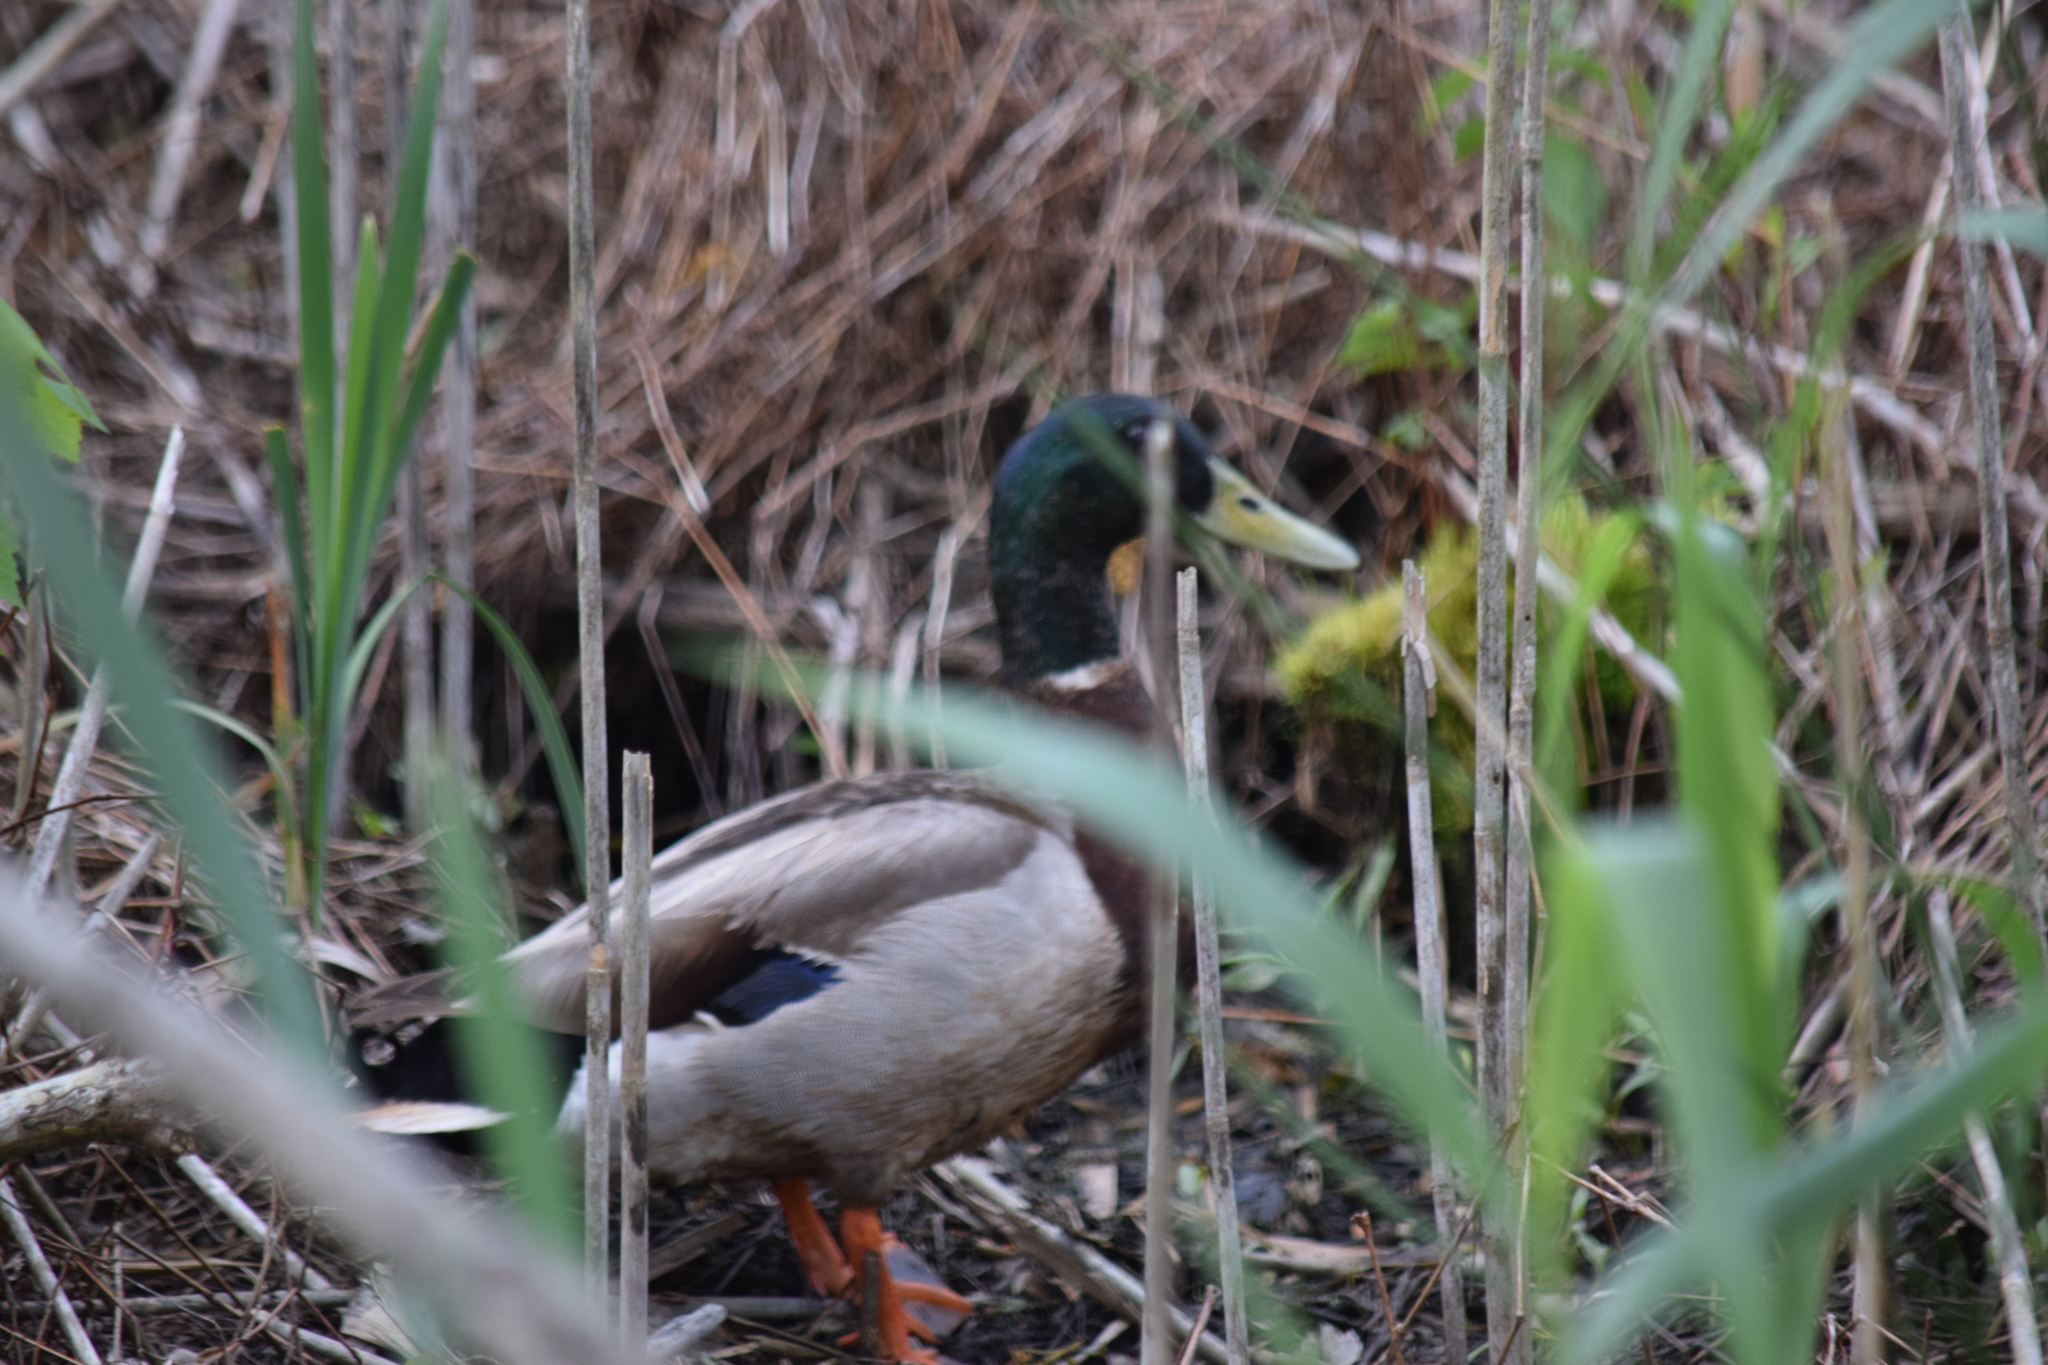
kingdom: Animalia
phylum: Chordata
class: Aves
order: Anseriformes
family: Anatidae
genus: Anas
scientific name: Anas platyrhynchos
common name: Mallard
